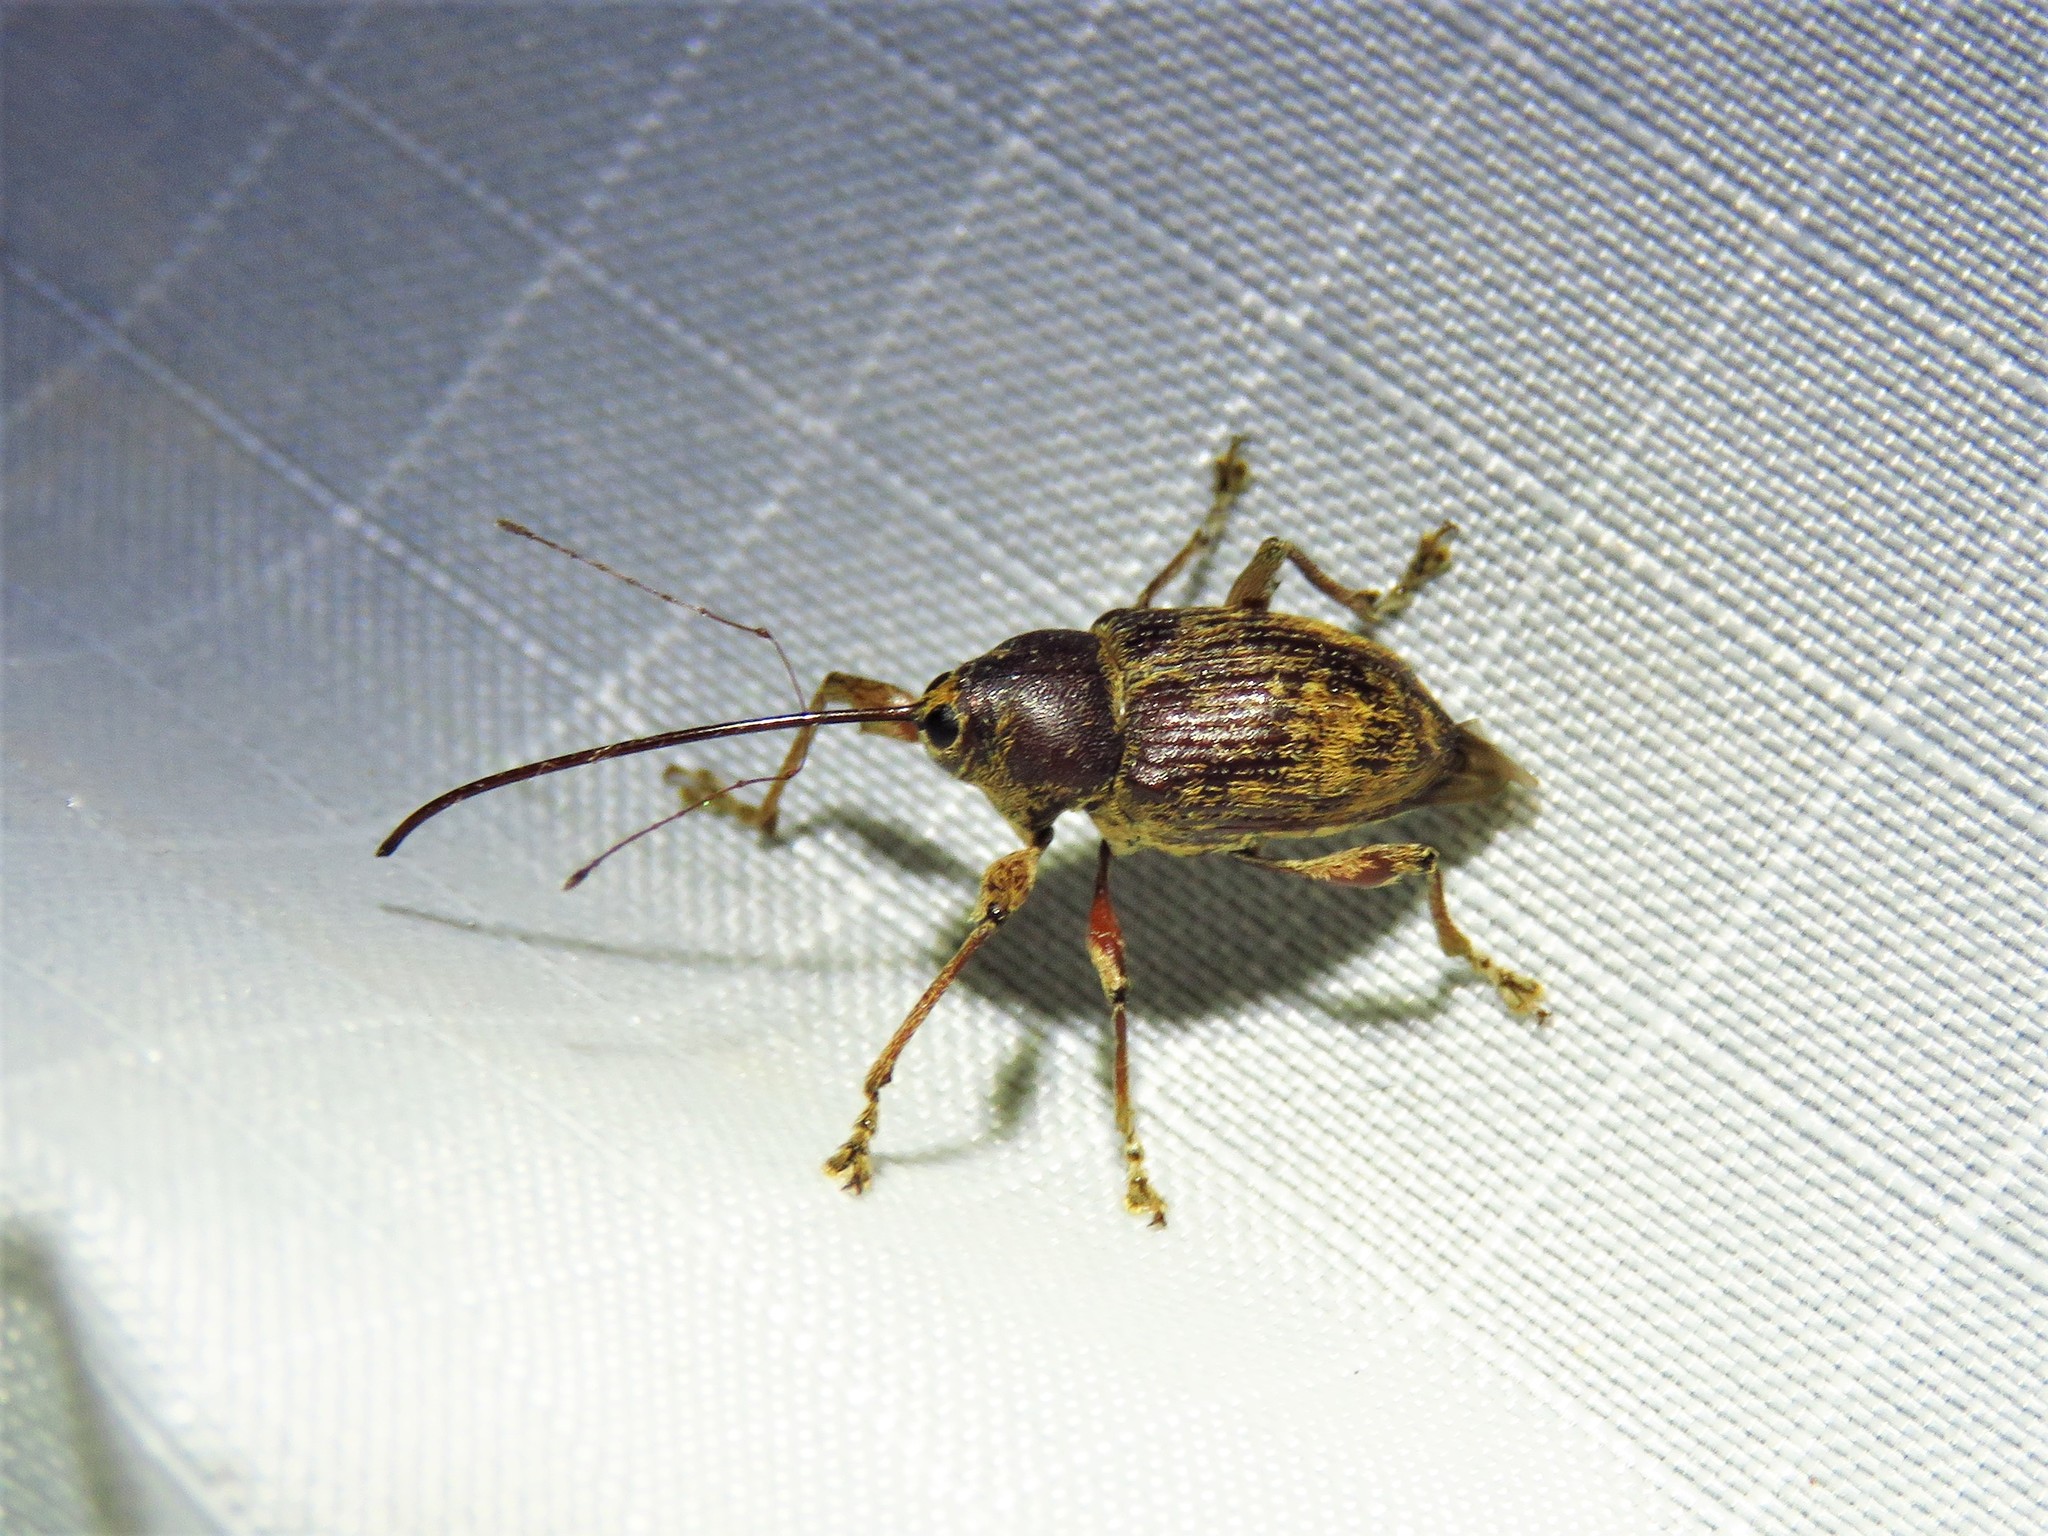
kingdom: Animalia
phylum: Arthropoda
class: Insecta
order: Coleoptera
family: Curculionidae
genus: Curculio
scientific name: Curculio
